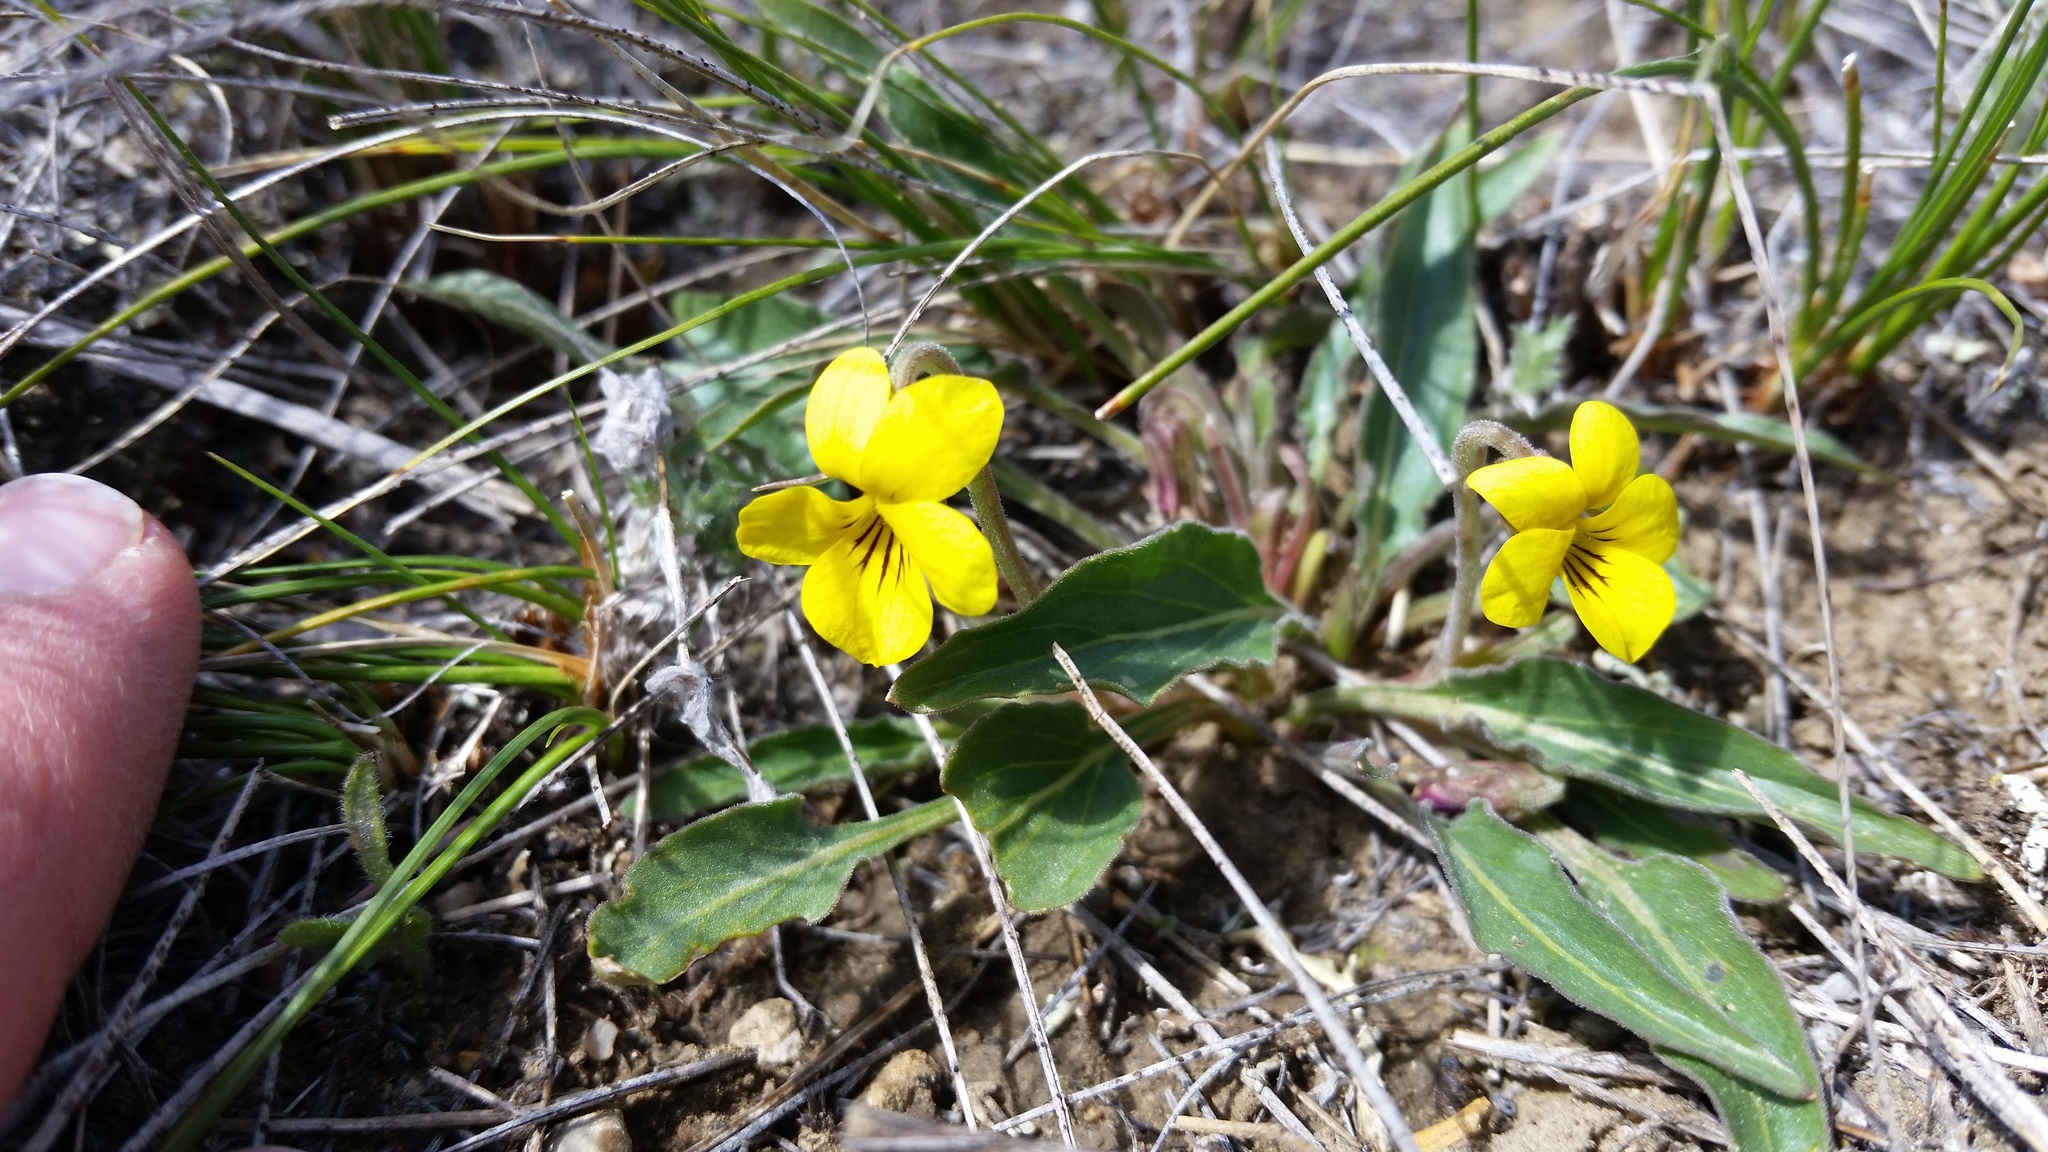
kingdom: Plantae
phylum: Tracheophyta
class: Magnoliopsida
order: Malpighiales
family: Violaceae
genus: Viola
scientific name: Viola nuttallii
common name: Yellow prairie violet
